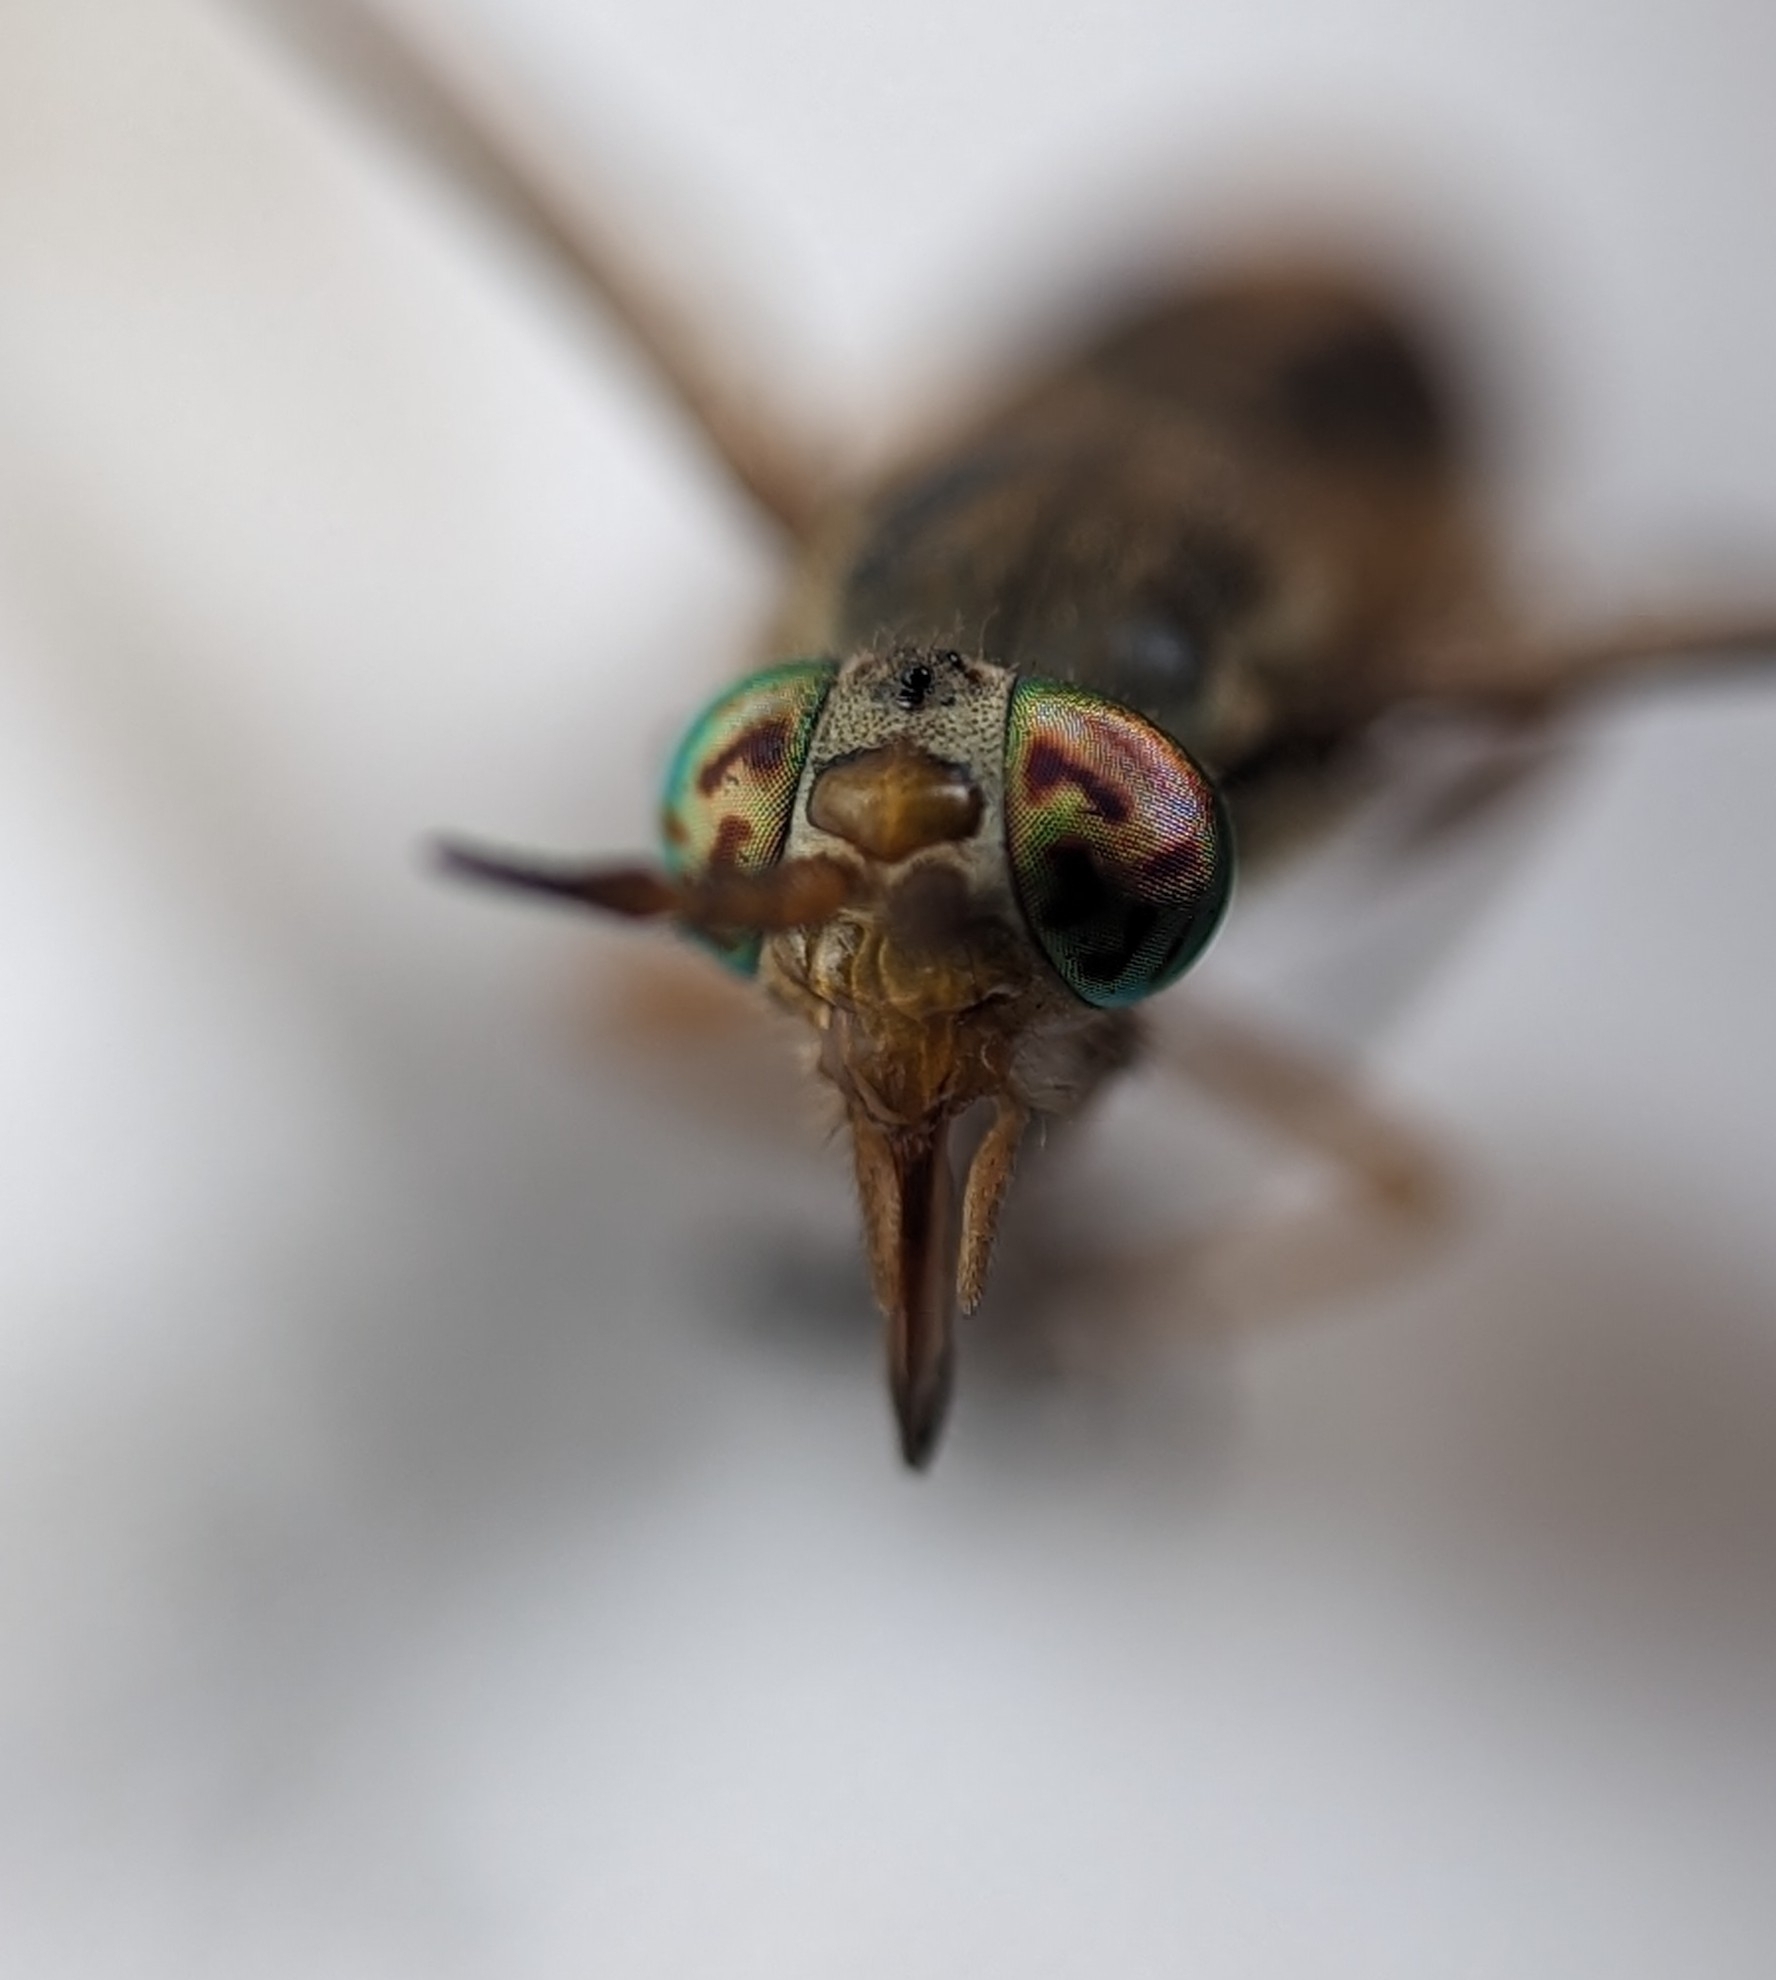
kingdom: Animalia
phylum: Arthropoda
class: Insecta
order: Diptera
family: Tabanidae
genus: Chrysops
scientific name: Chrysops atlanticus
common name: Atlantic deer fly
